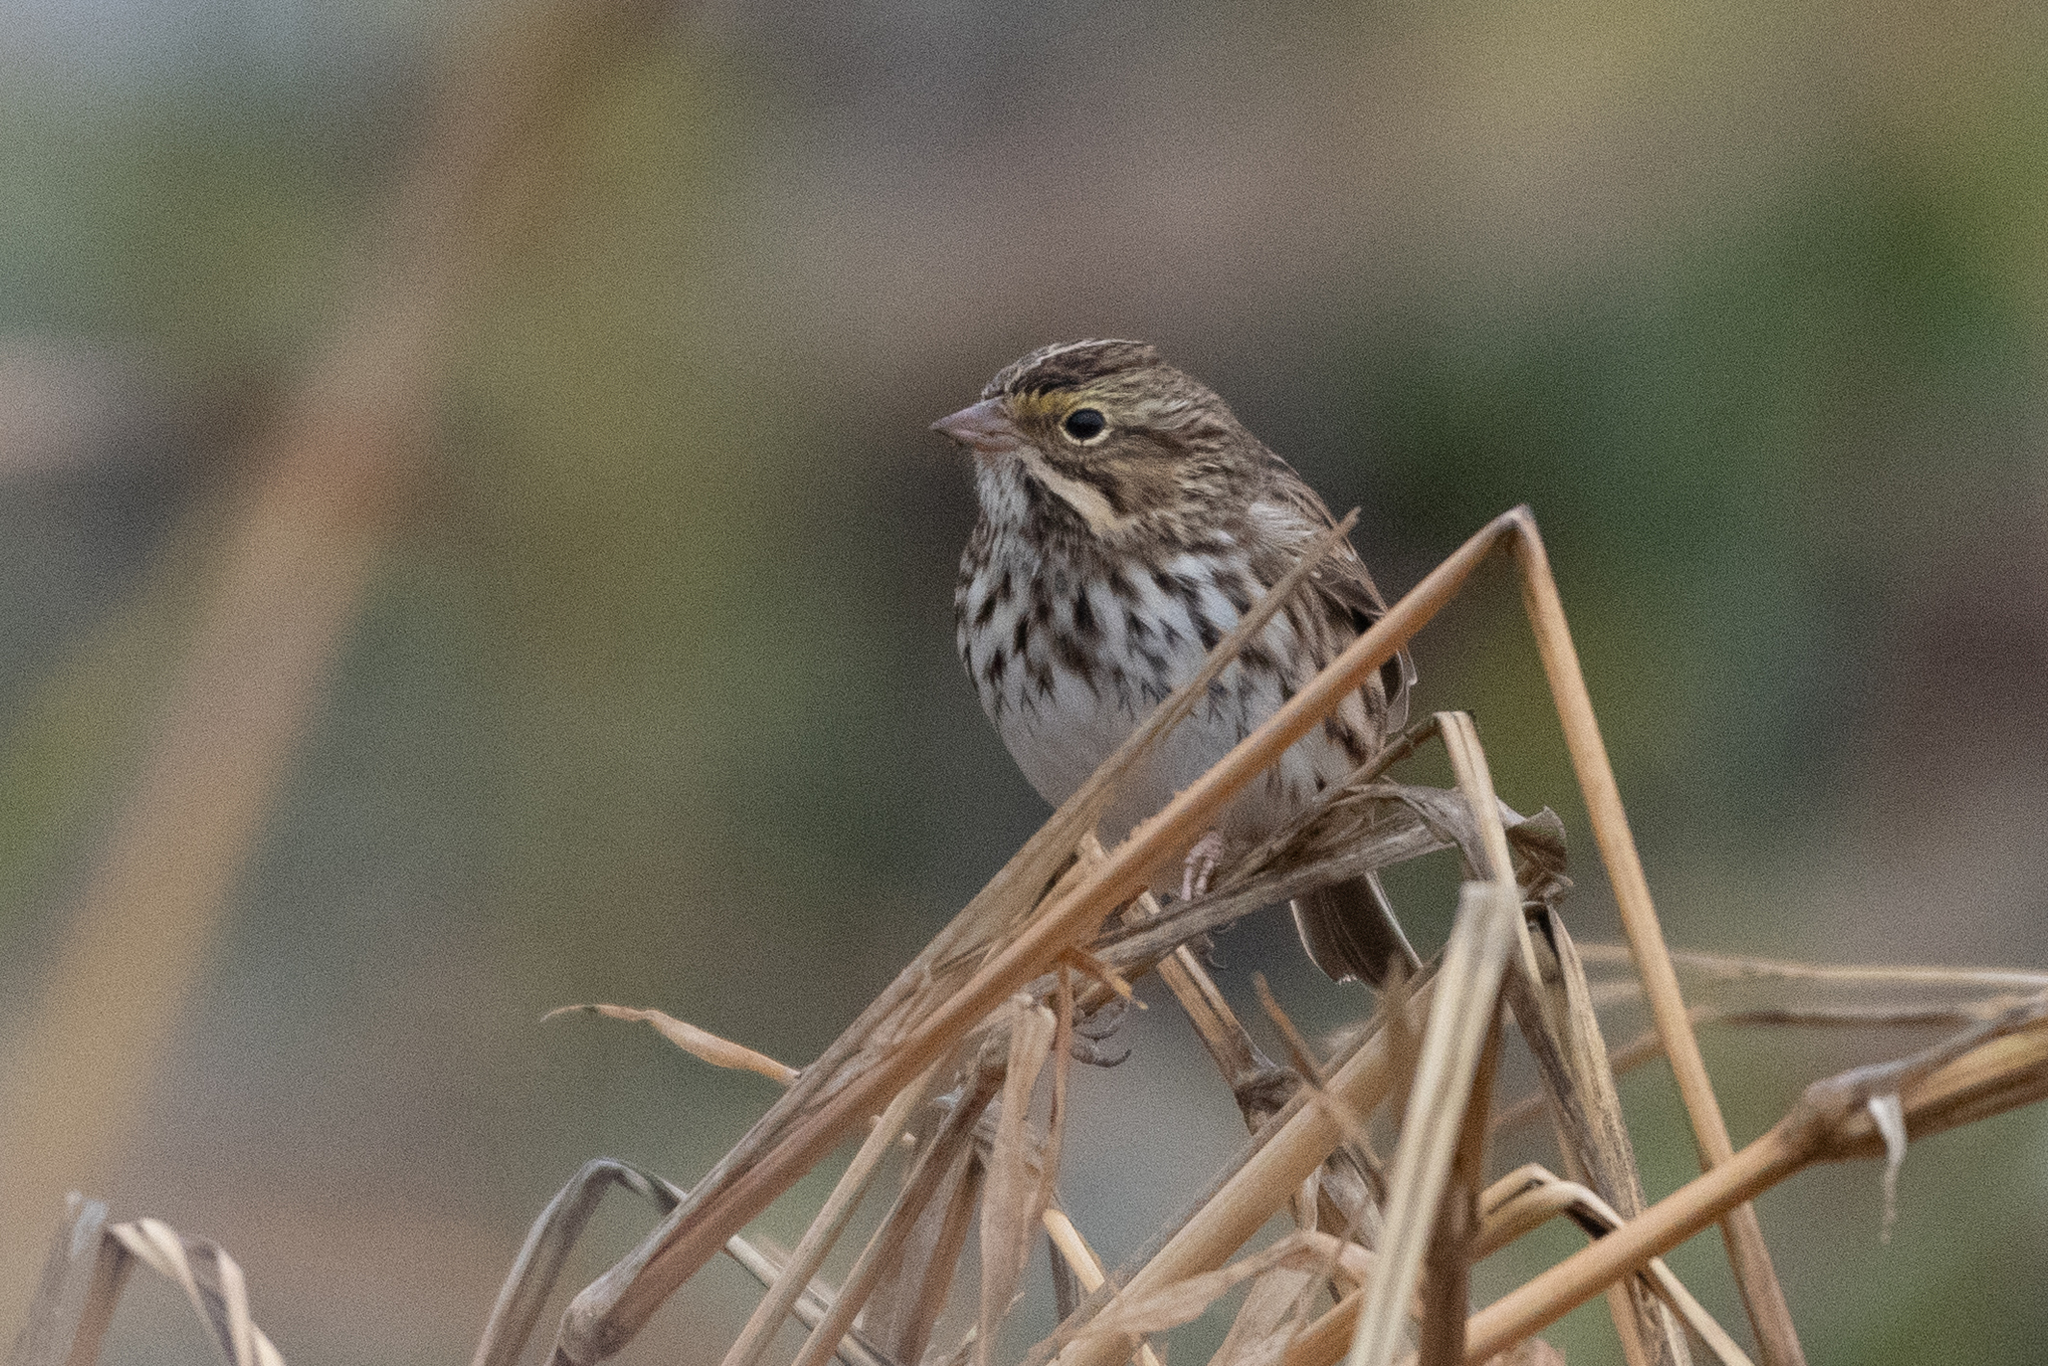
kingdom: Animalia
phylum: Chordata
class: Aves
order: Passeriformes
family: Passerellidae
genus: Passerculus
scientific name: Passerculus sandwichensis
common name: Savannah sparrow
